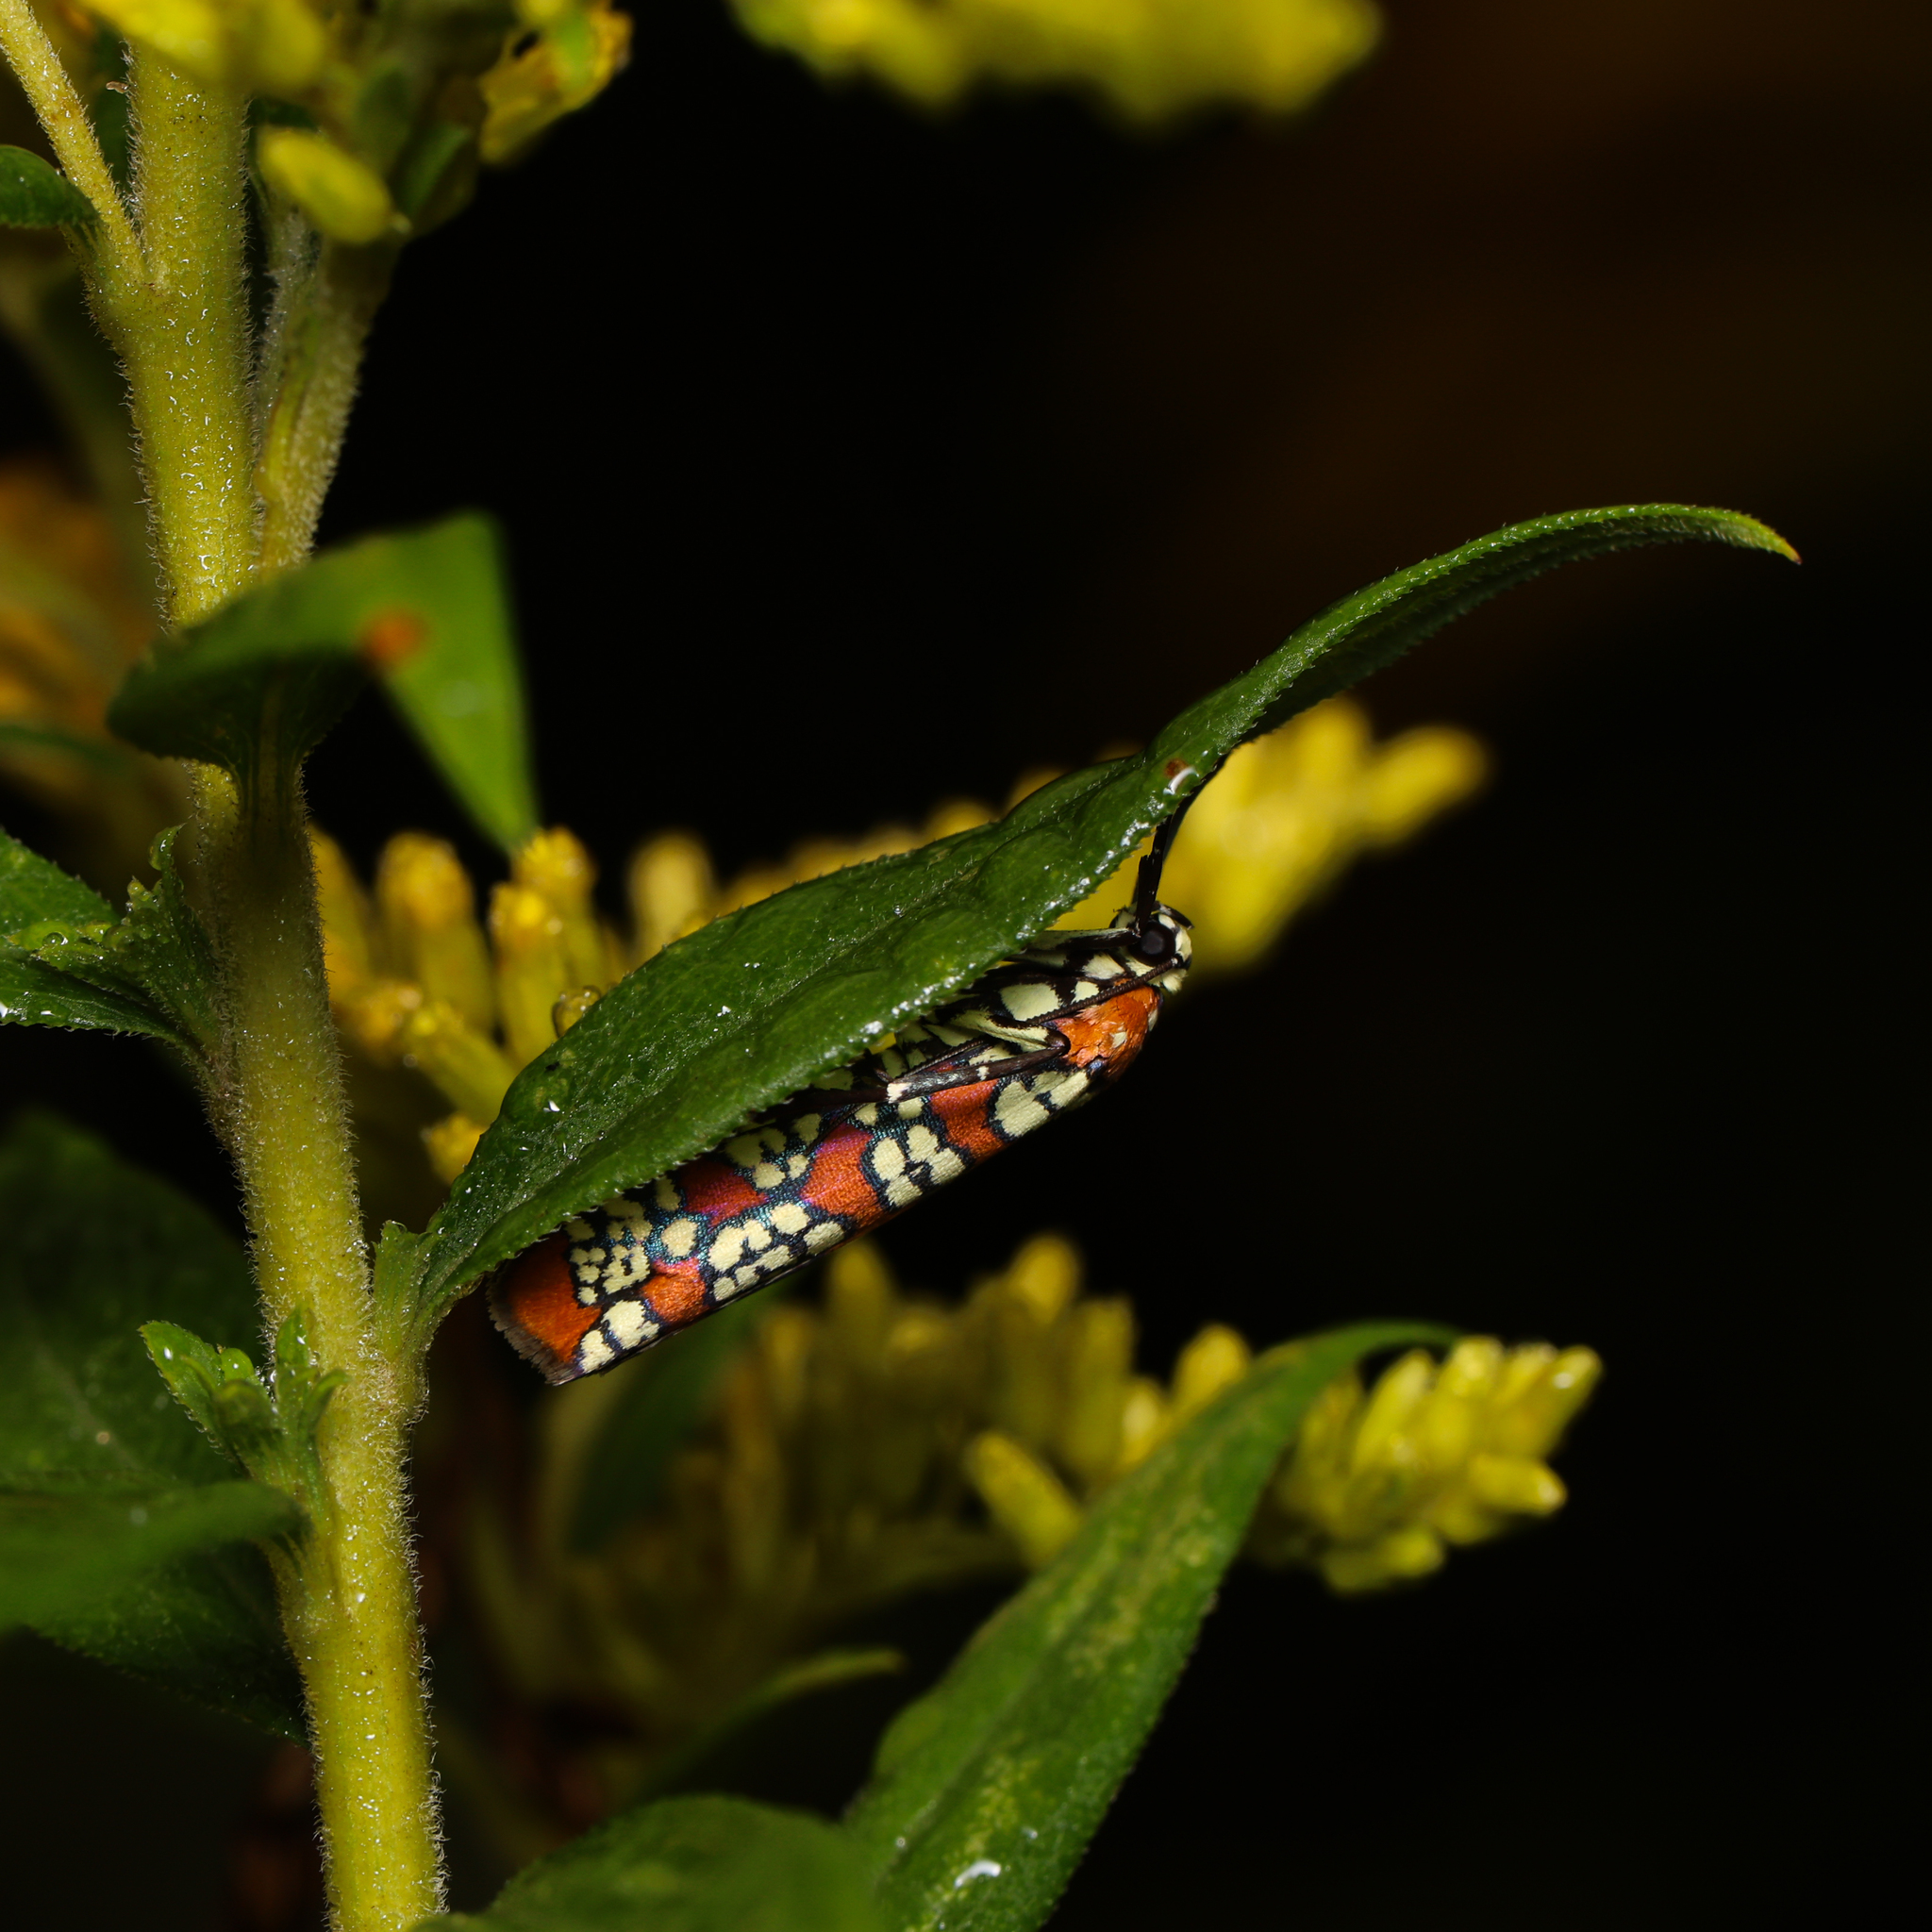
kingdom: Animalia
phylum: Arthropoda
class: Insecta
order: Lepidoptera
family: Attevidae
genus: Atteva
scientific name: Atteva punctella
